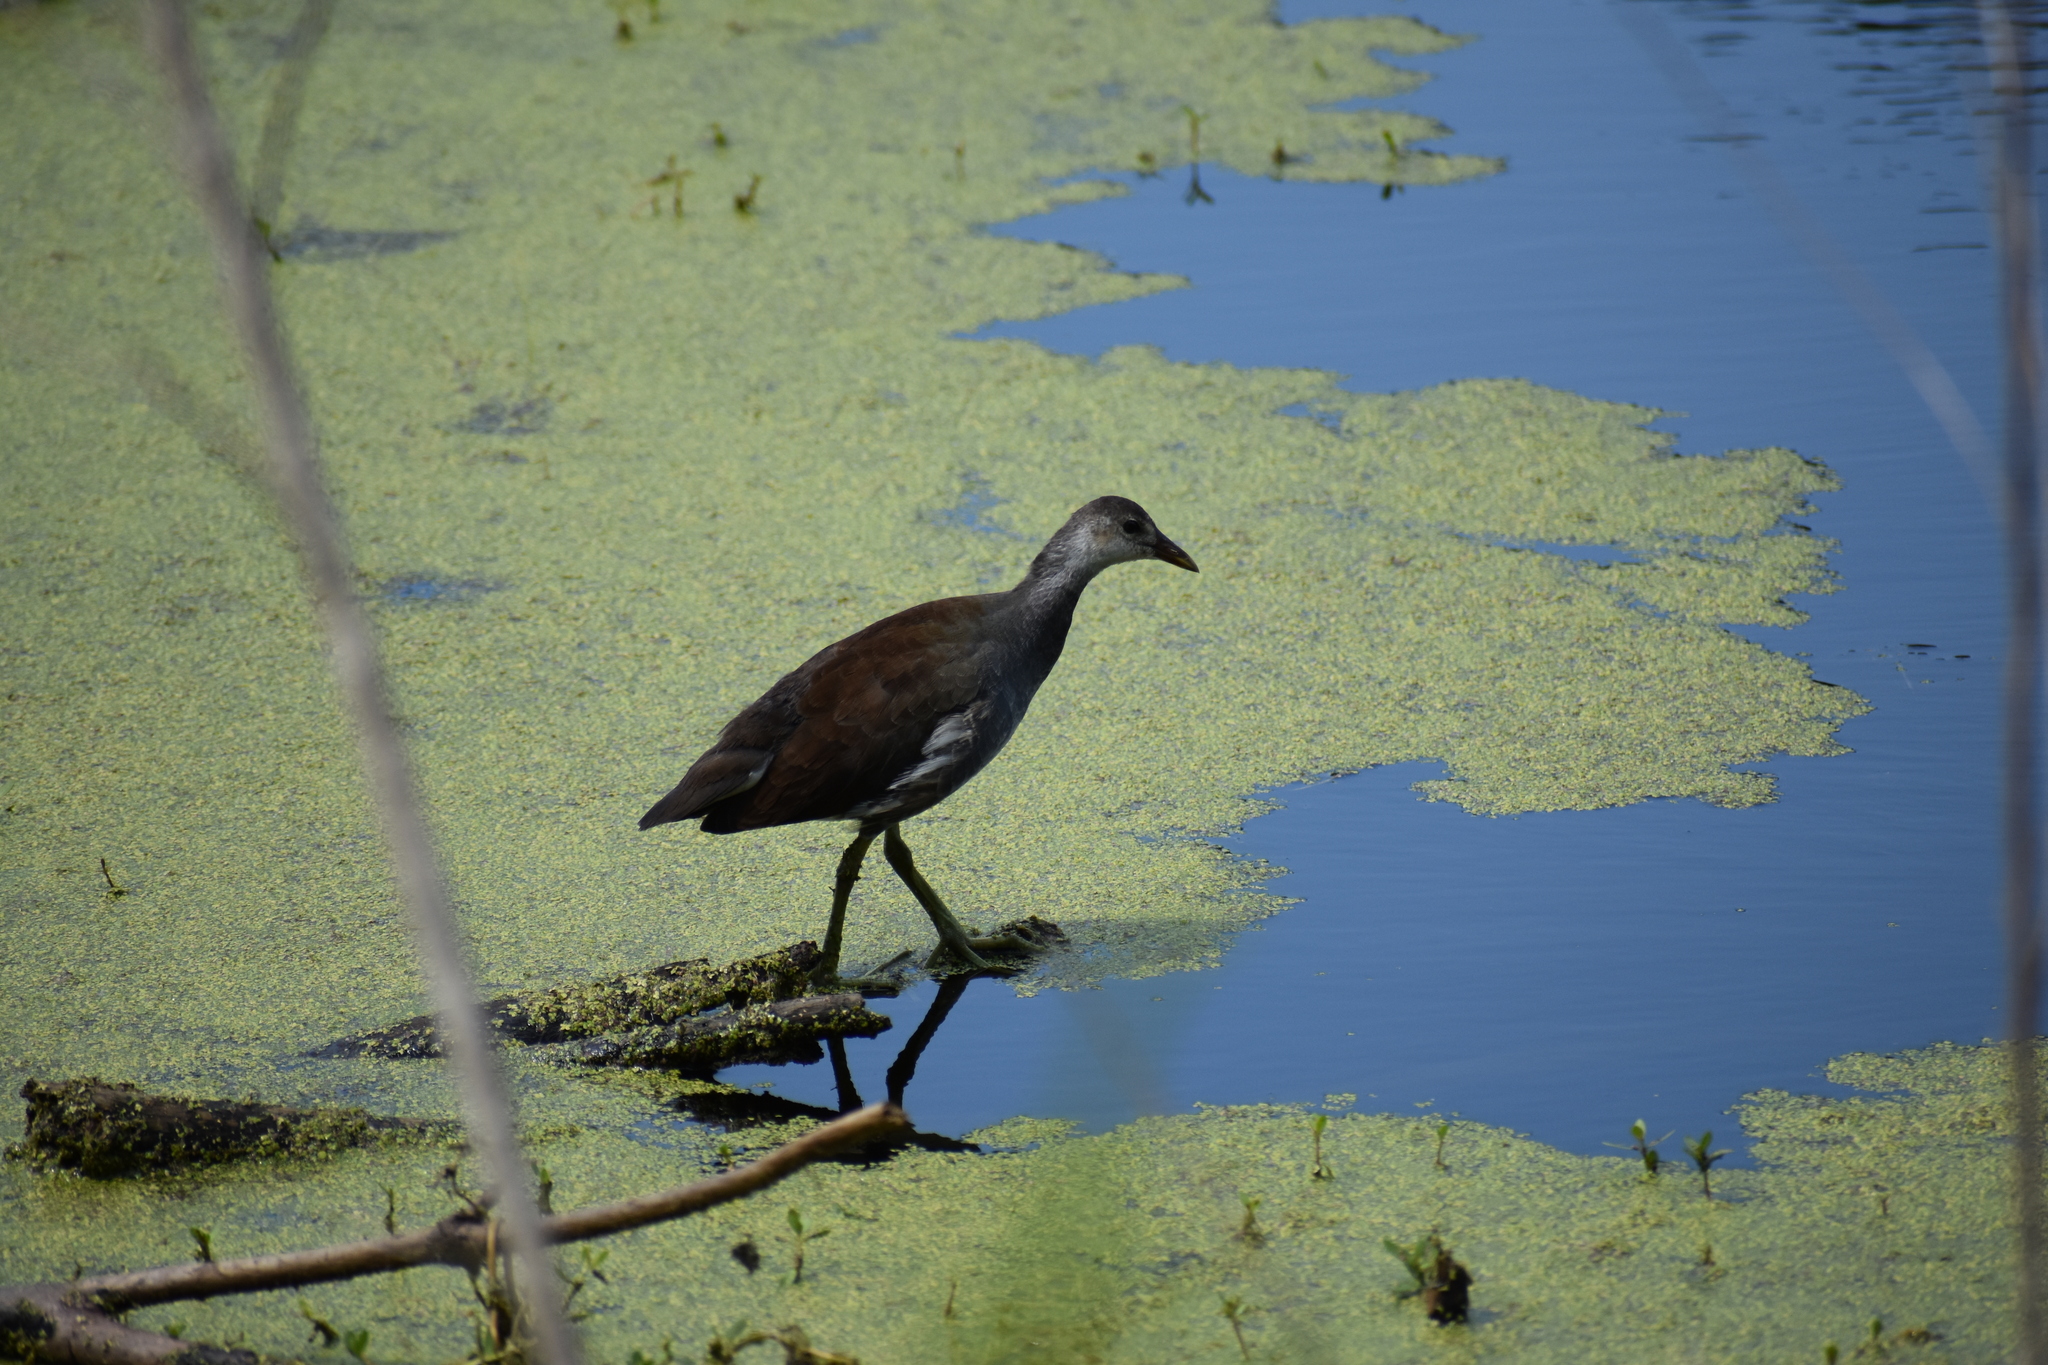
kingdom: Animalia
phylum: Chordata
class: Aves
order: Gruiformes
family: Rallidae
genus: Gallinula
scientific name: Gallinula chloropus
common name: Common moorhen
